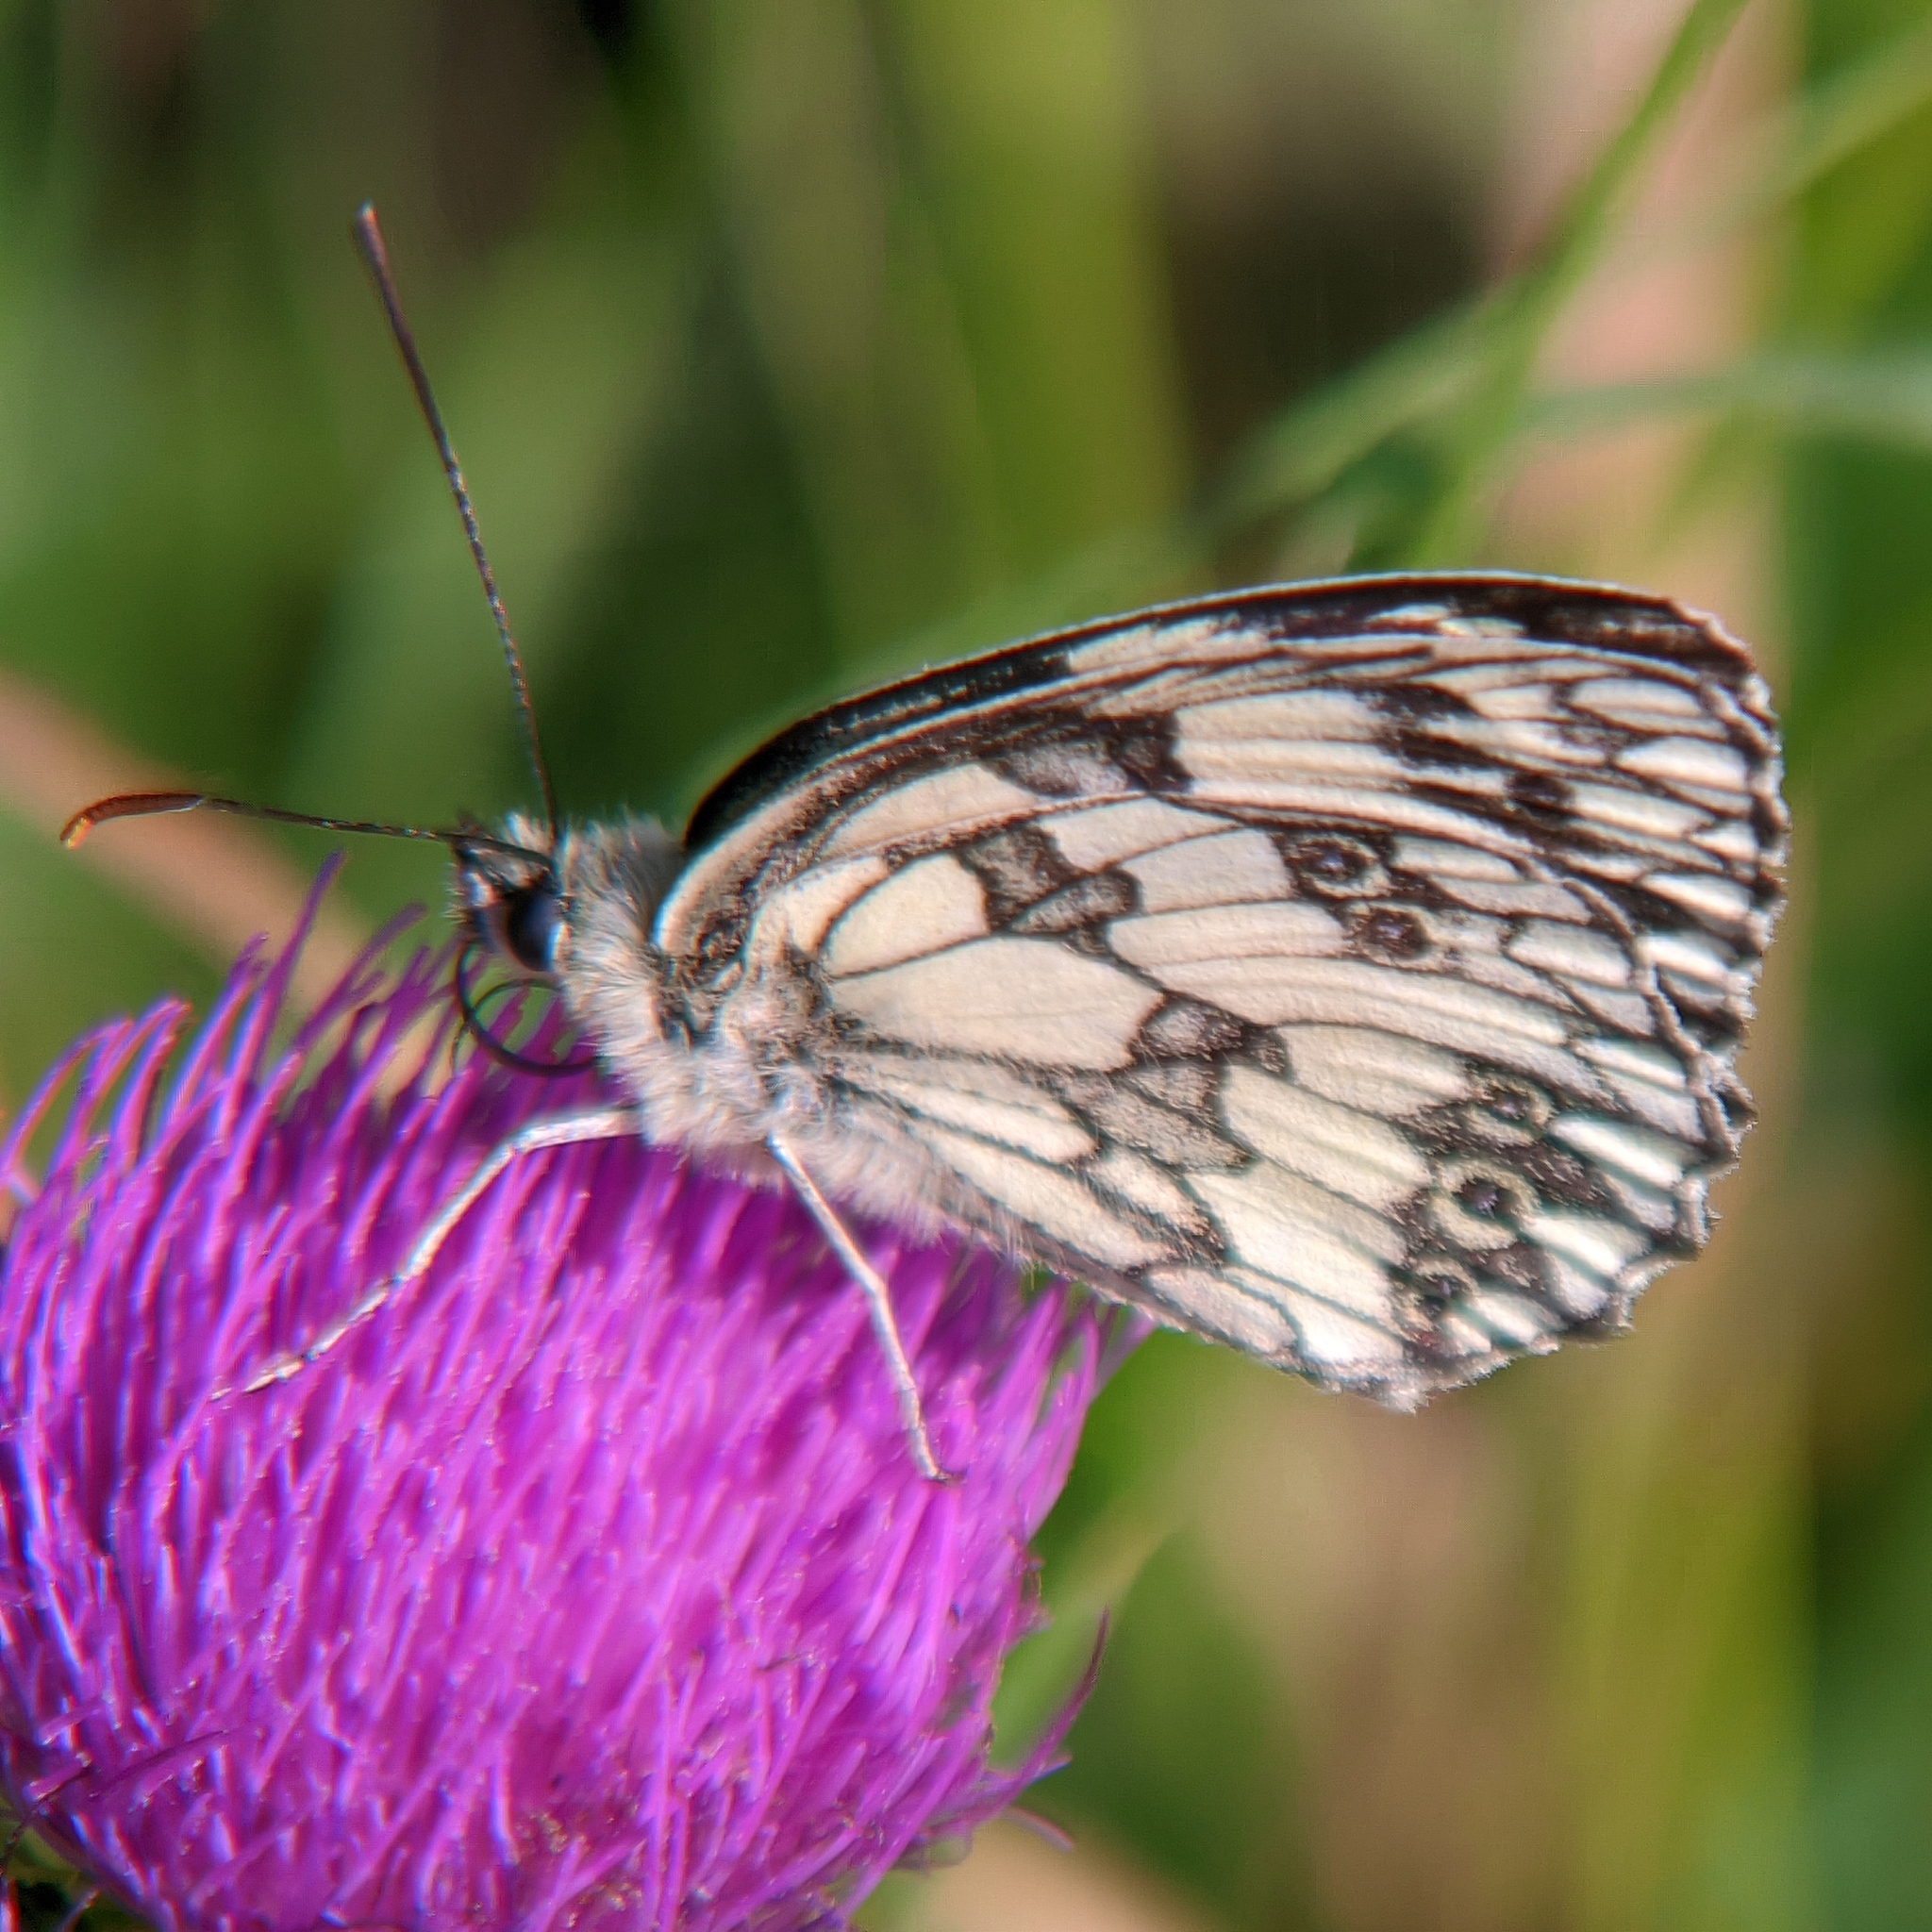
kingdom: Animalia
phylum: Arthropoda
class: Insecta
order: Lepidoptera
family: Nymphalidae
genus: Melanargia
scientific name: Melanargia galathea
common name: Marbled white
